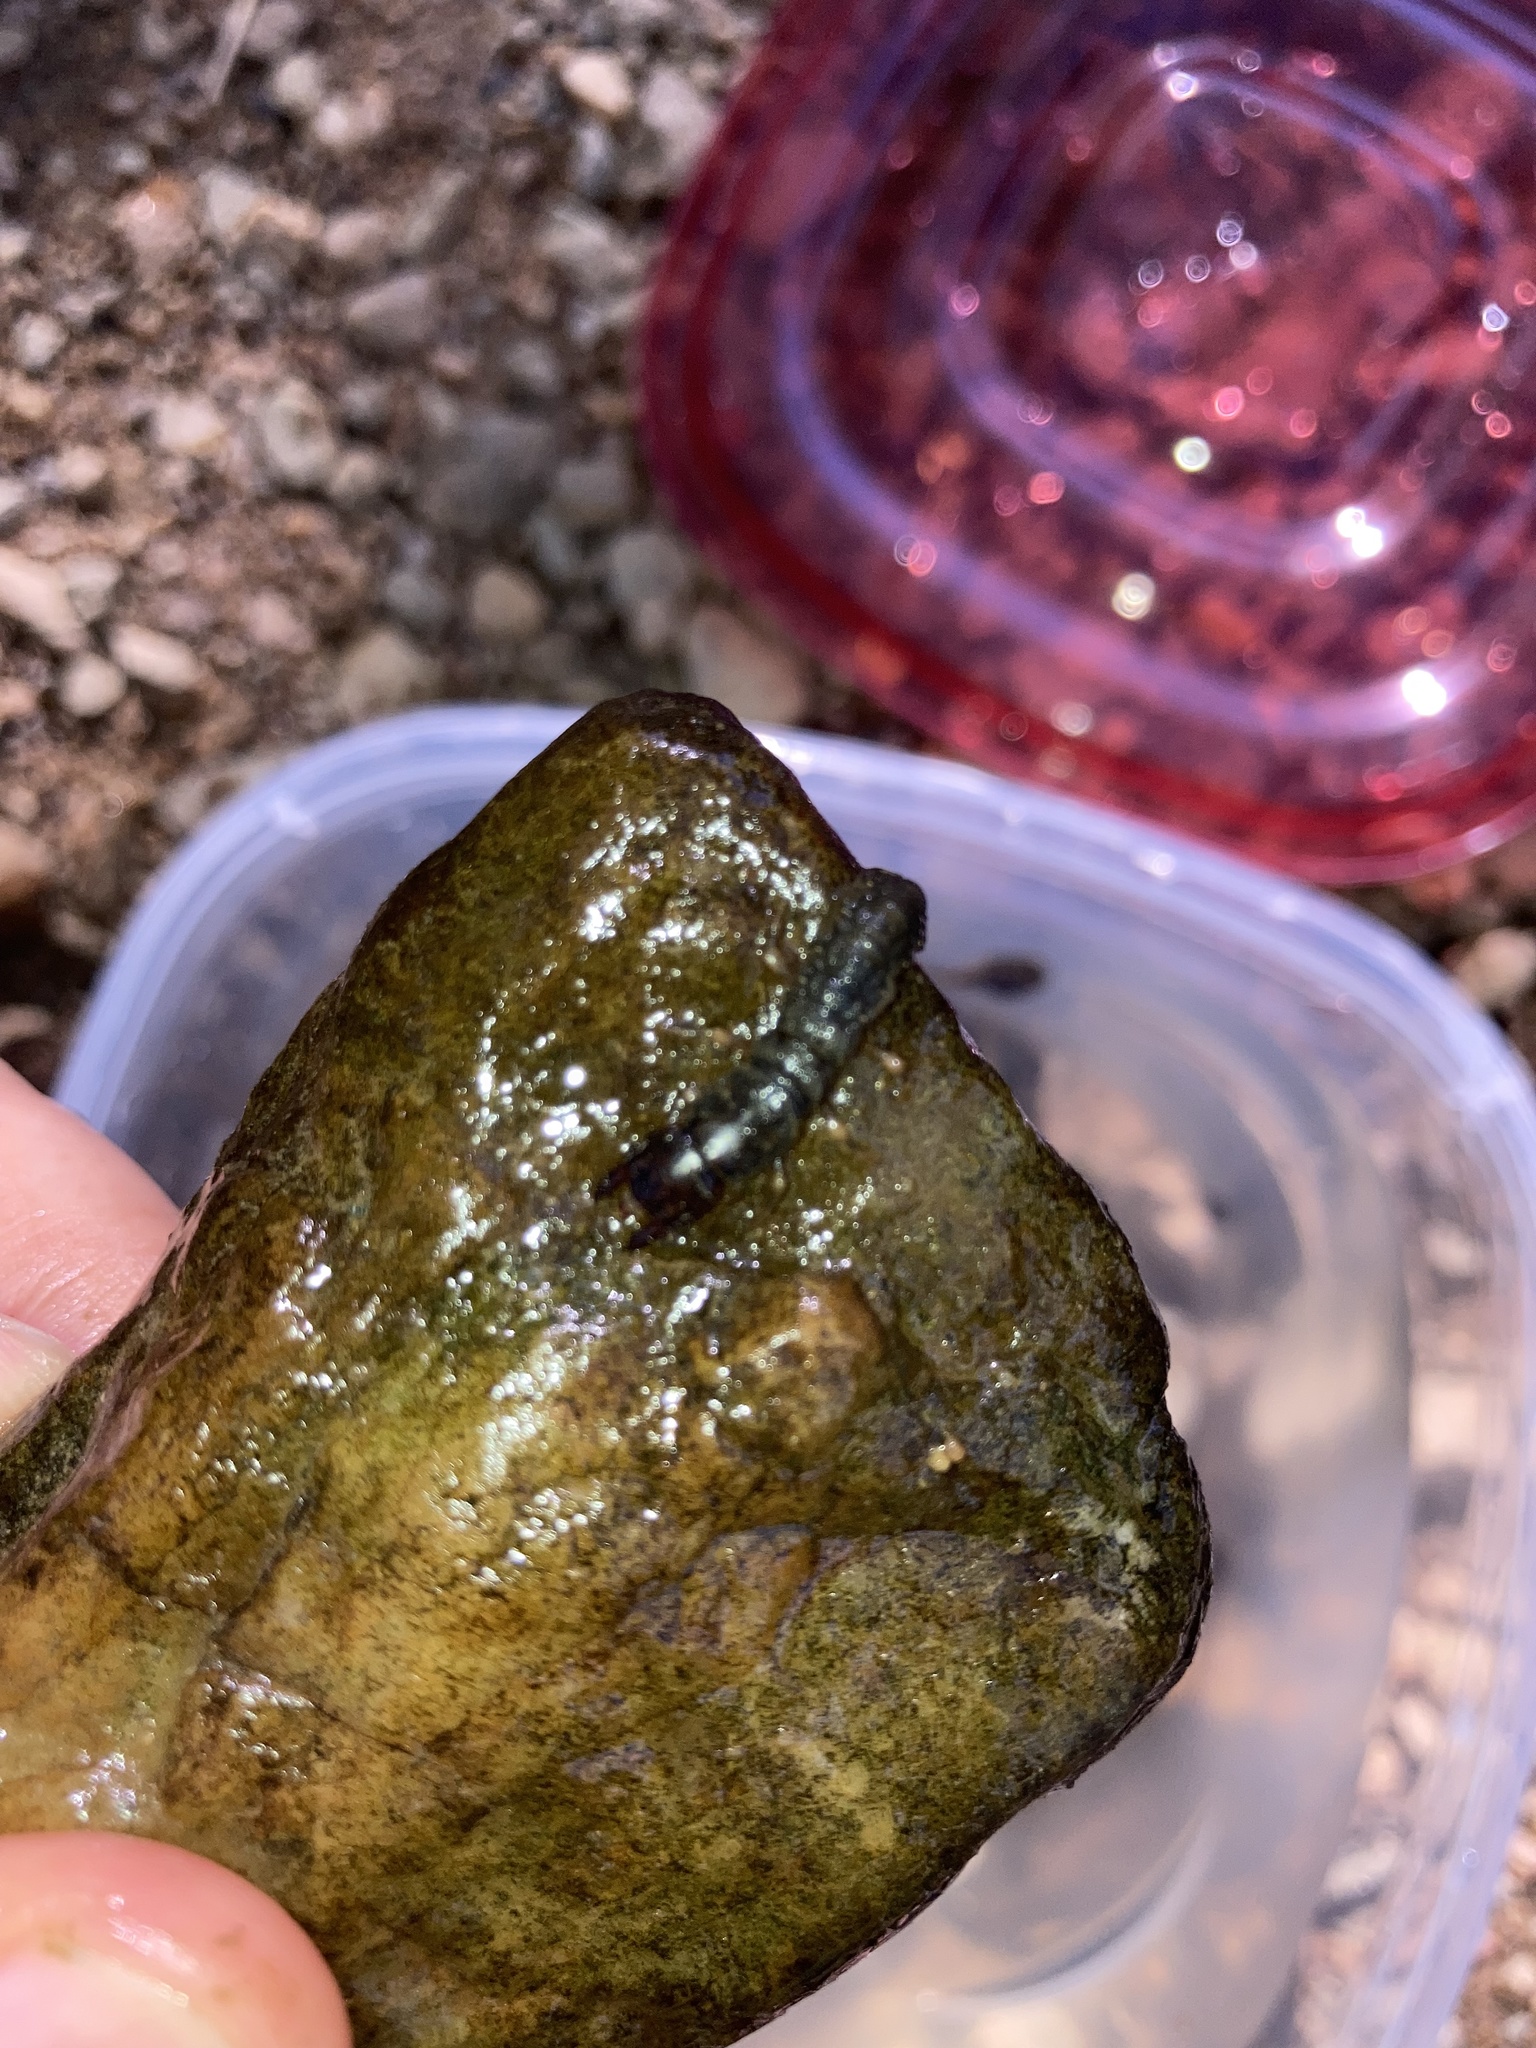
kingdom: Animalia
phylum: Arthropoda
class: Insecta
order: Megaloptera
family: Corydalidae
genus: Corydalus
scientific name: Corydalus cornutus
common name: Dobsonfly
